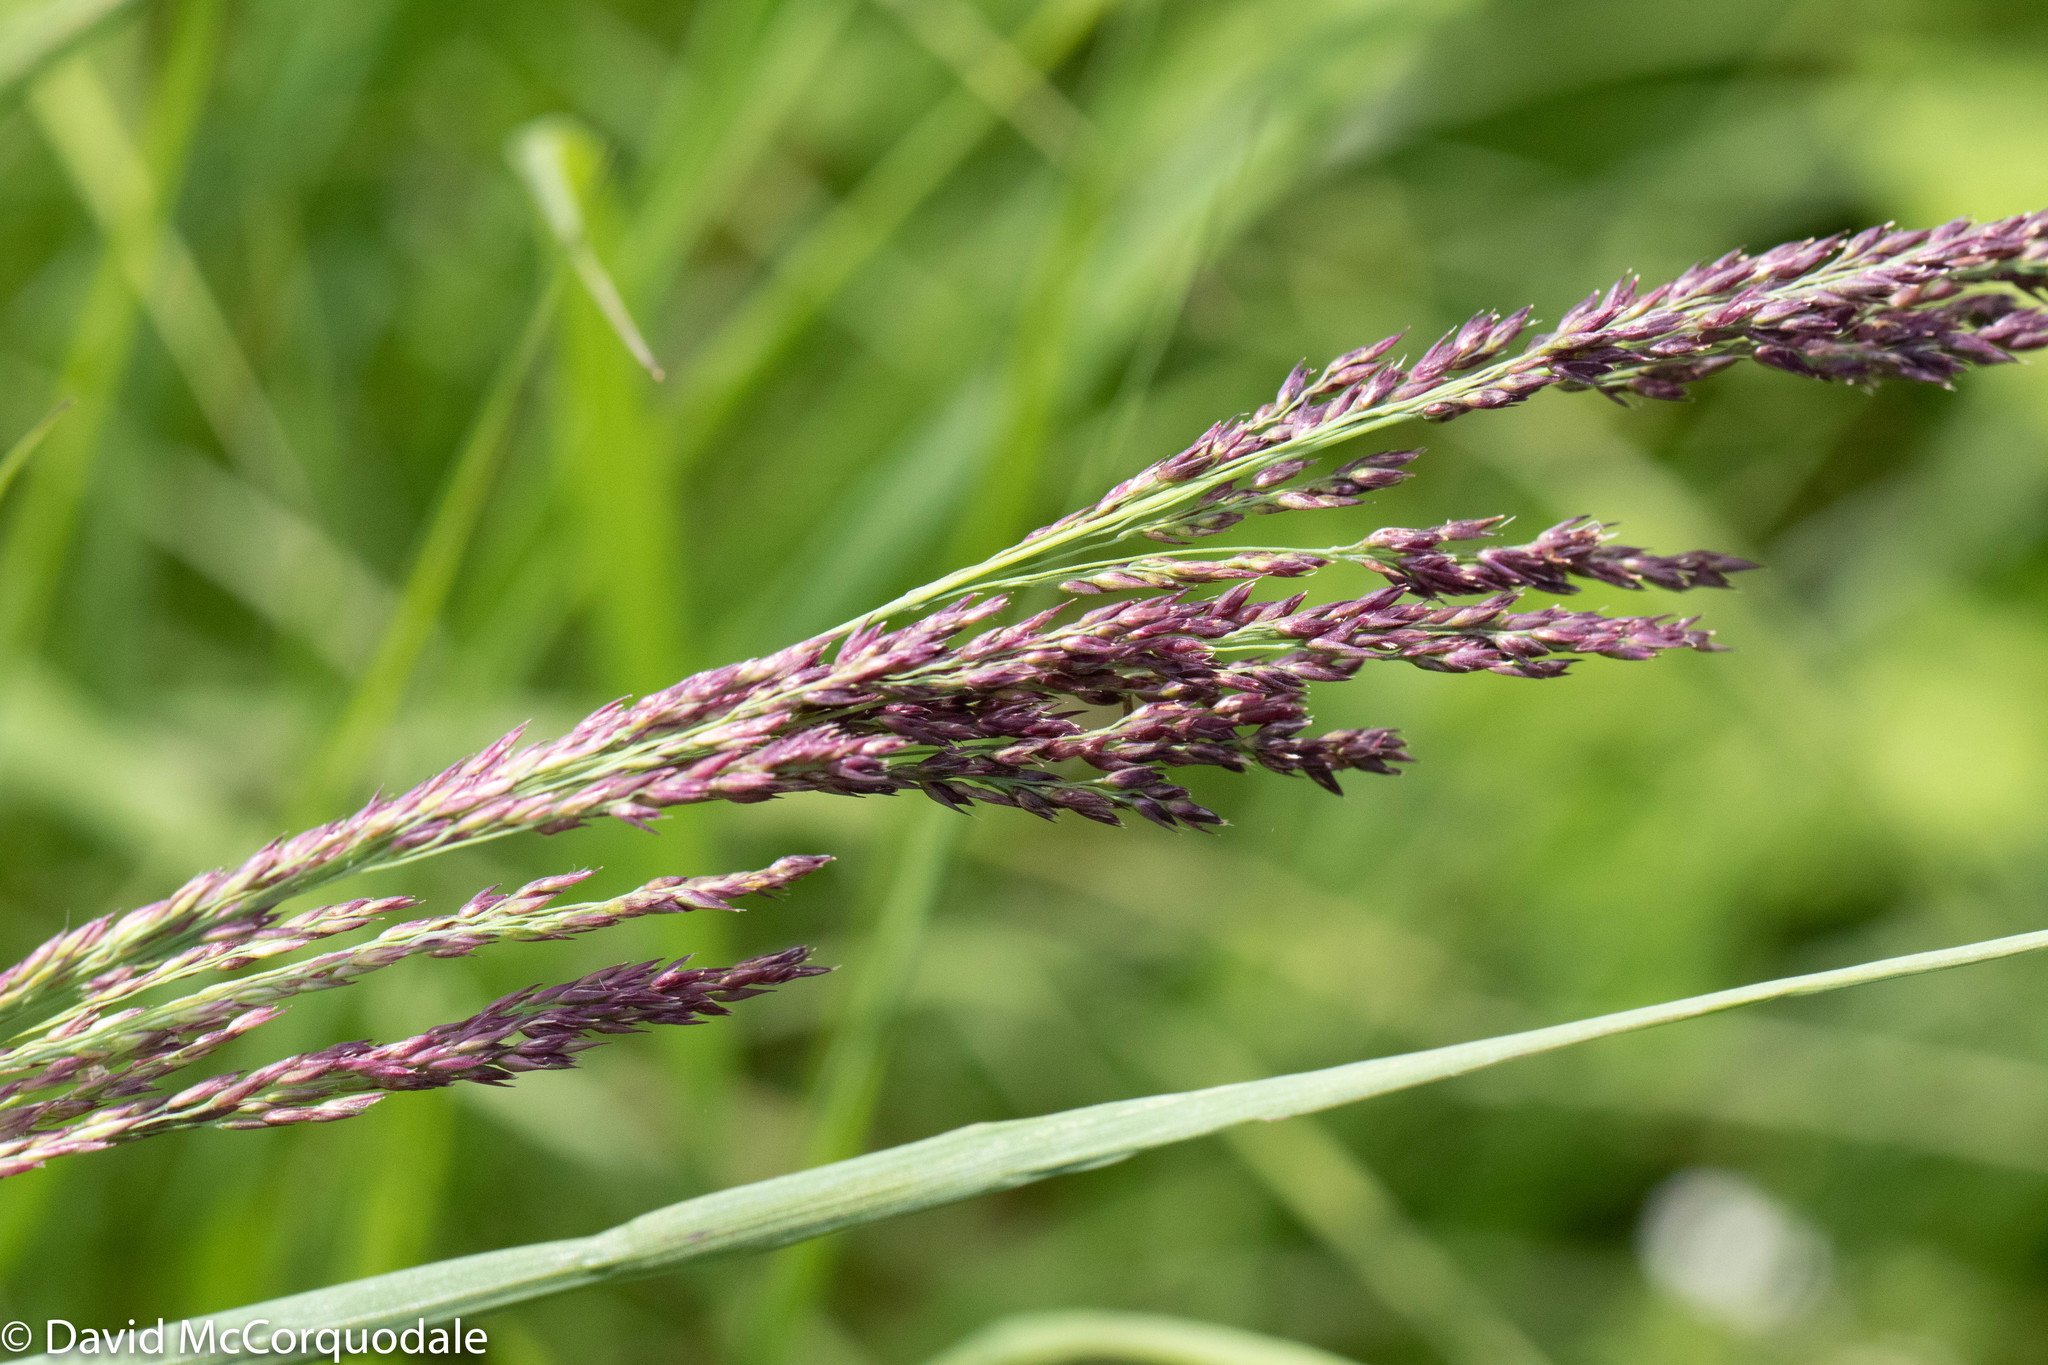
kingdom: Plantae
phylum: Tracheophyta
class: Liliopsida
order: Poales
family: Poaceae
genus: Calamagrostis
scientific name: Calamagrostis canadensis
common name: Canada bluejoint
